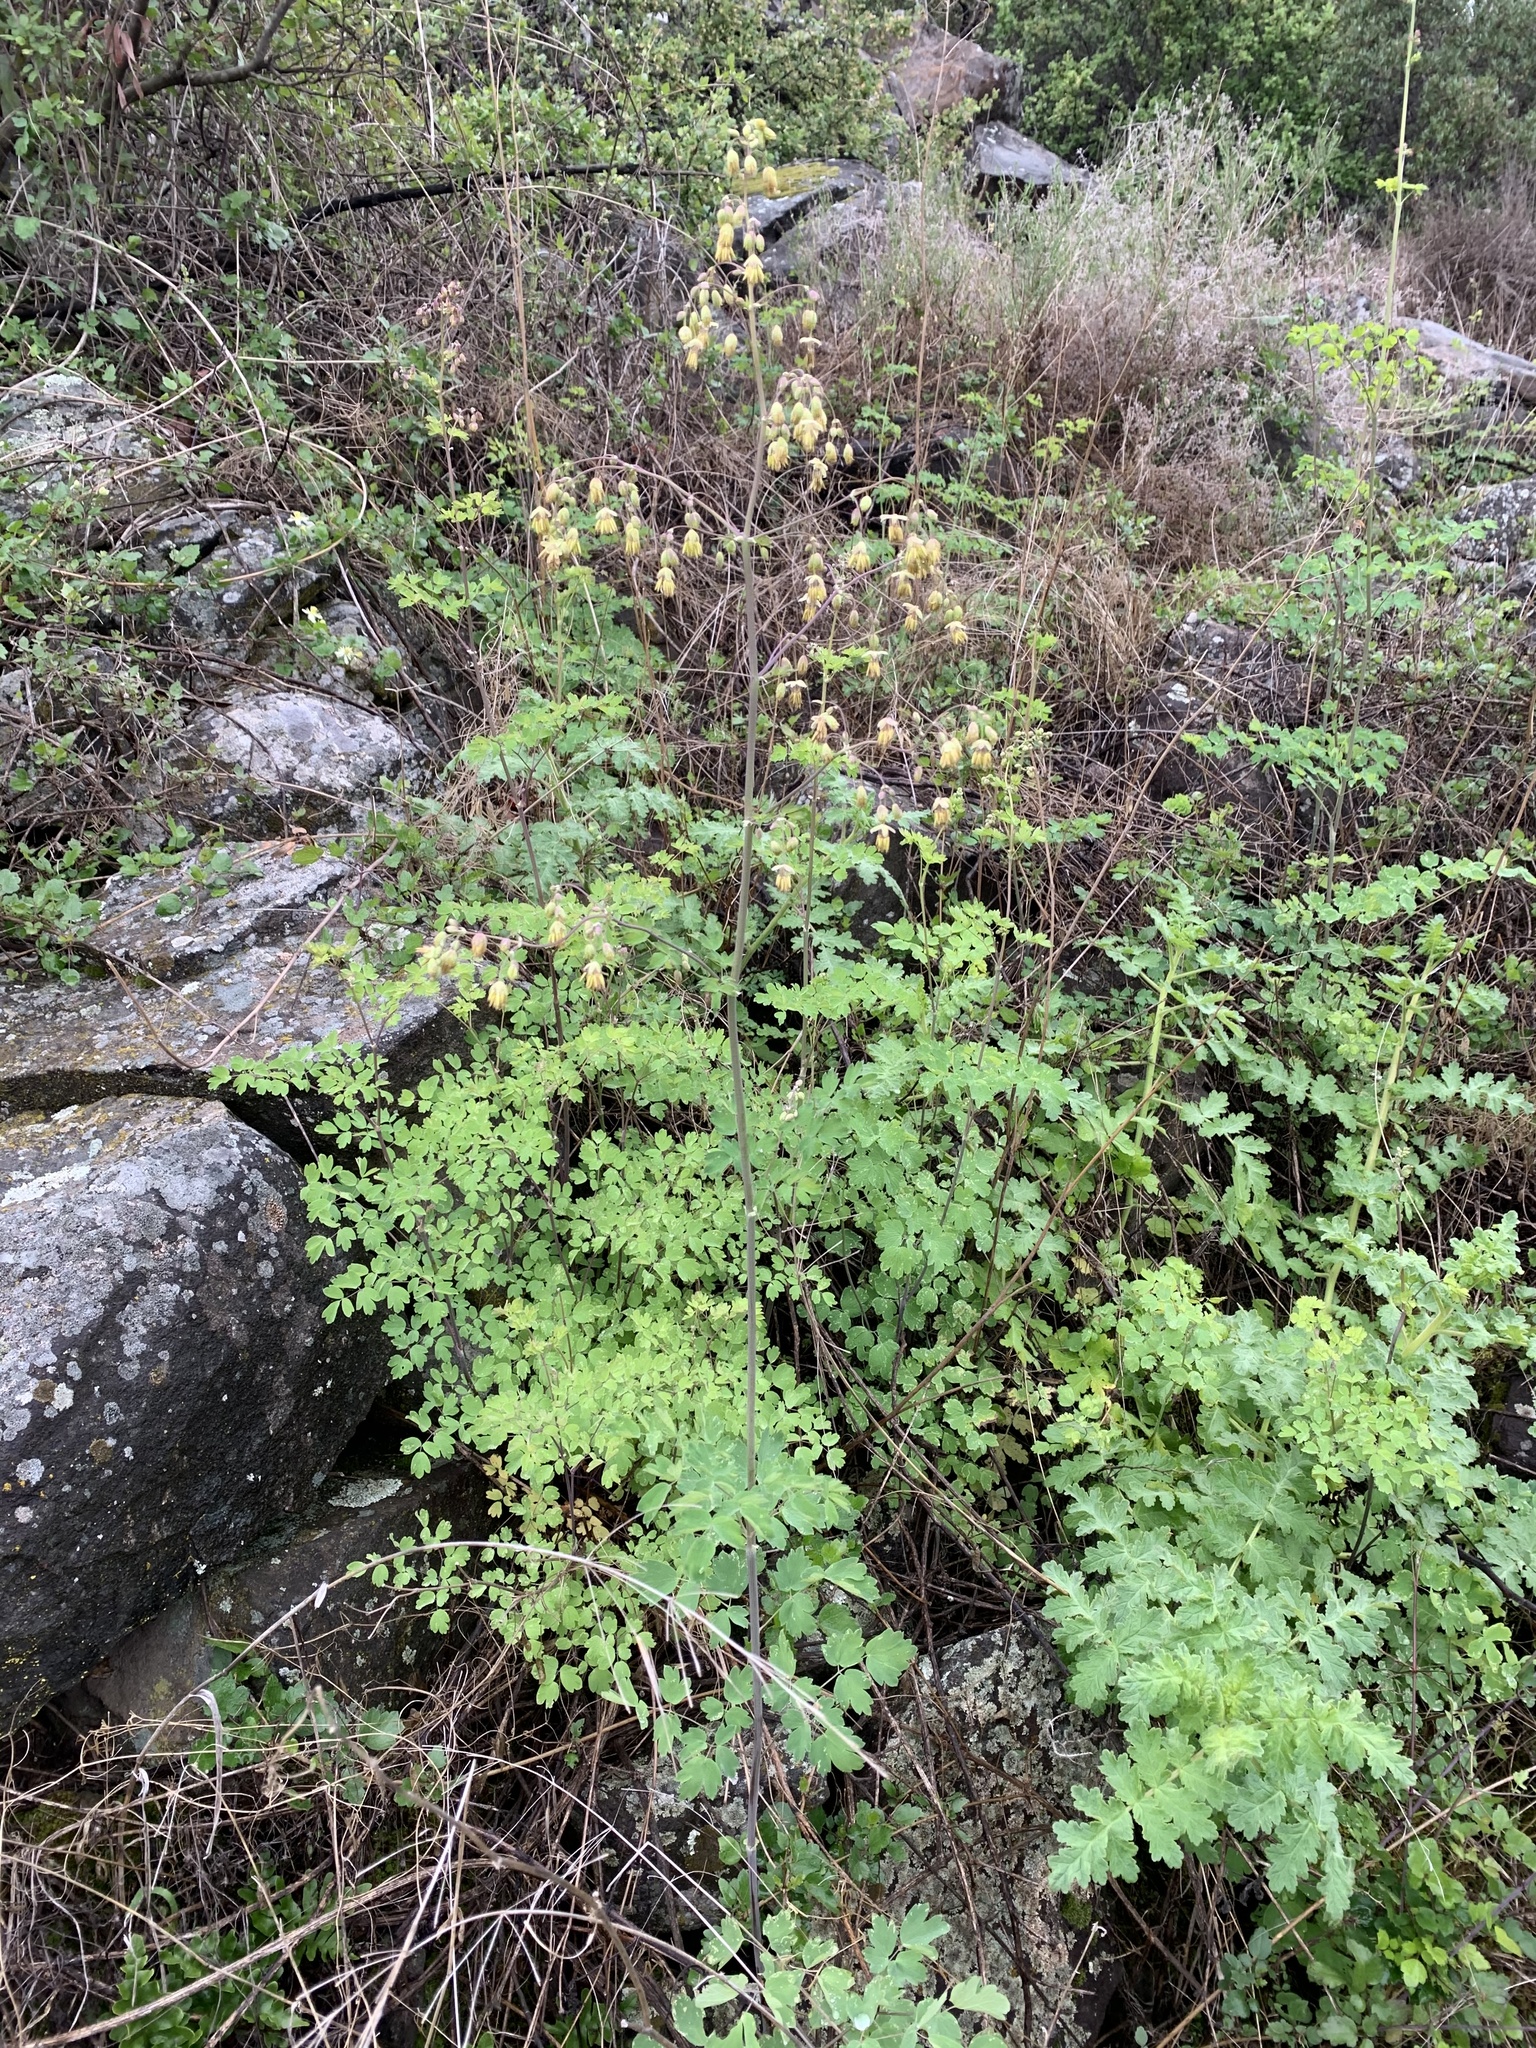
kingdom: Plantae
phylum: Tracheophyta
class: Magnoliopsida
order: Ranunculales
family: Ranunculaceae
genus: Thalictrum
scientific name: Thalictrum fendleri
